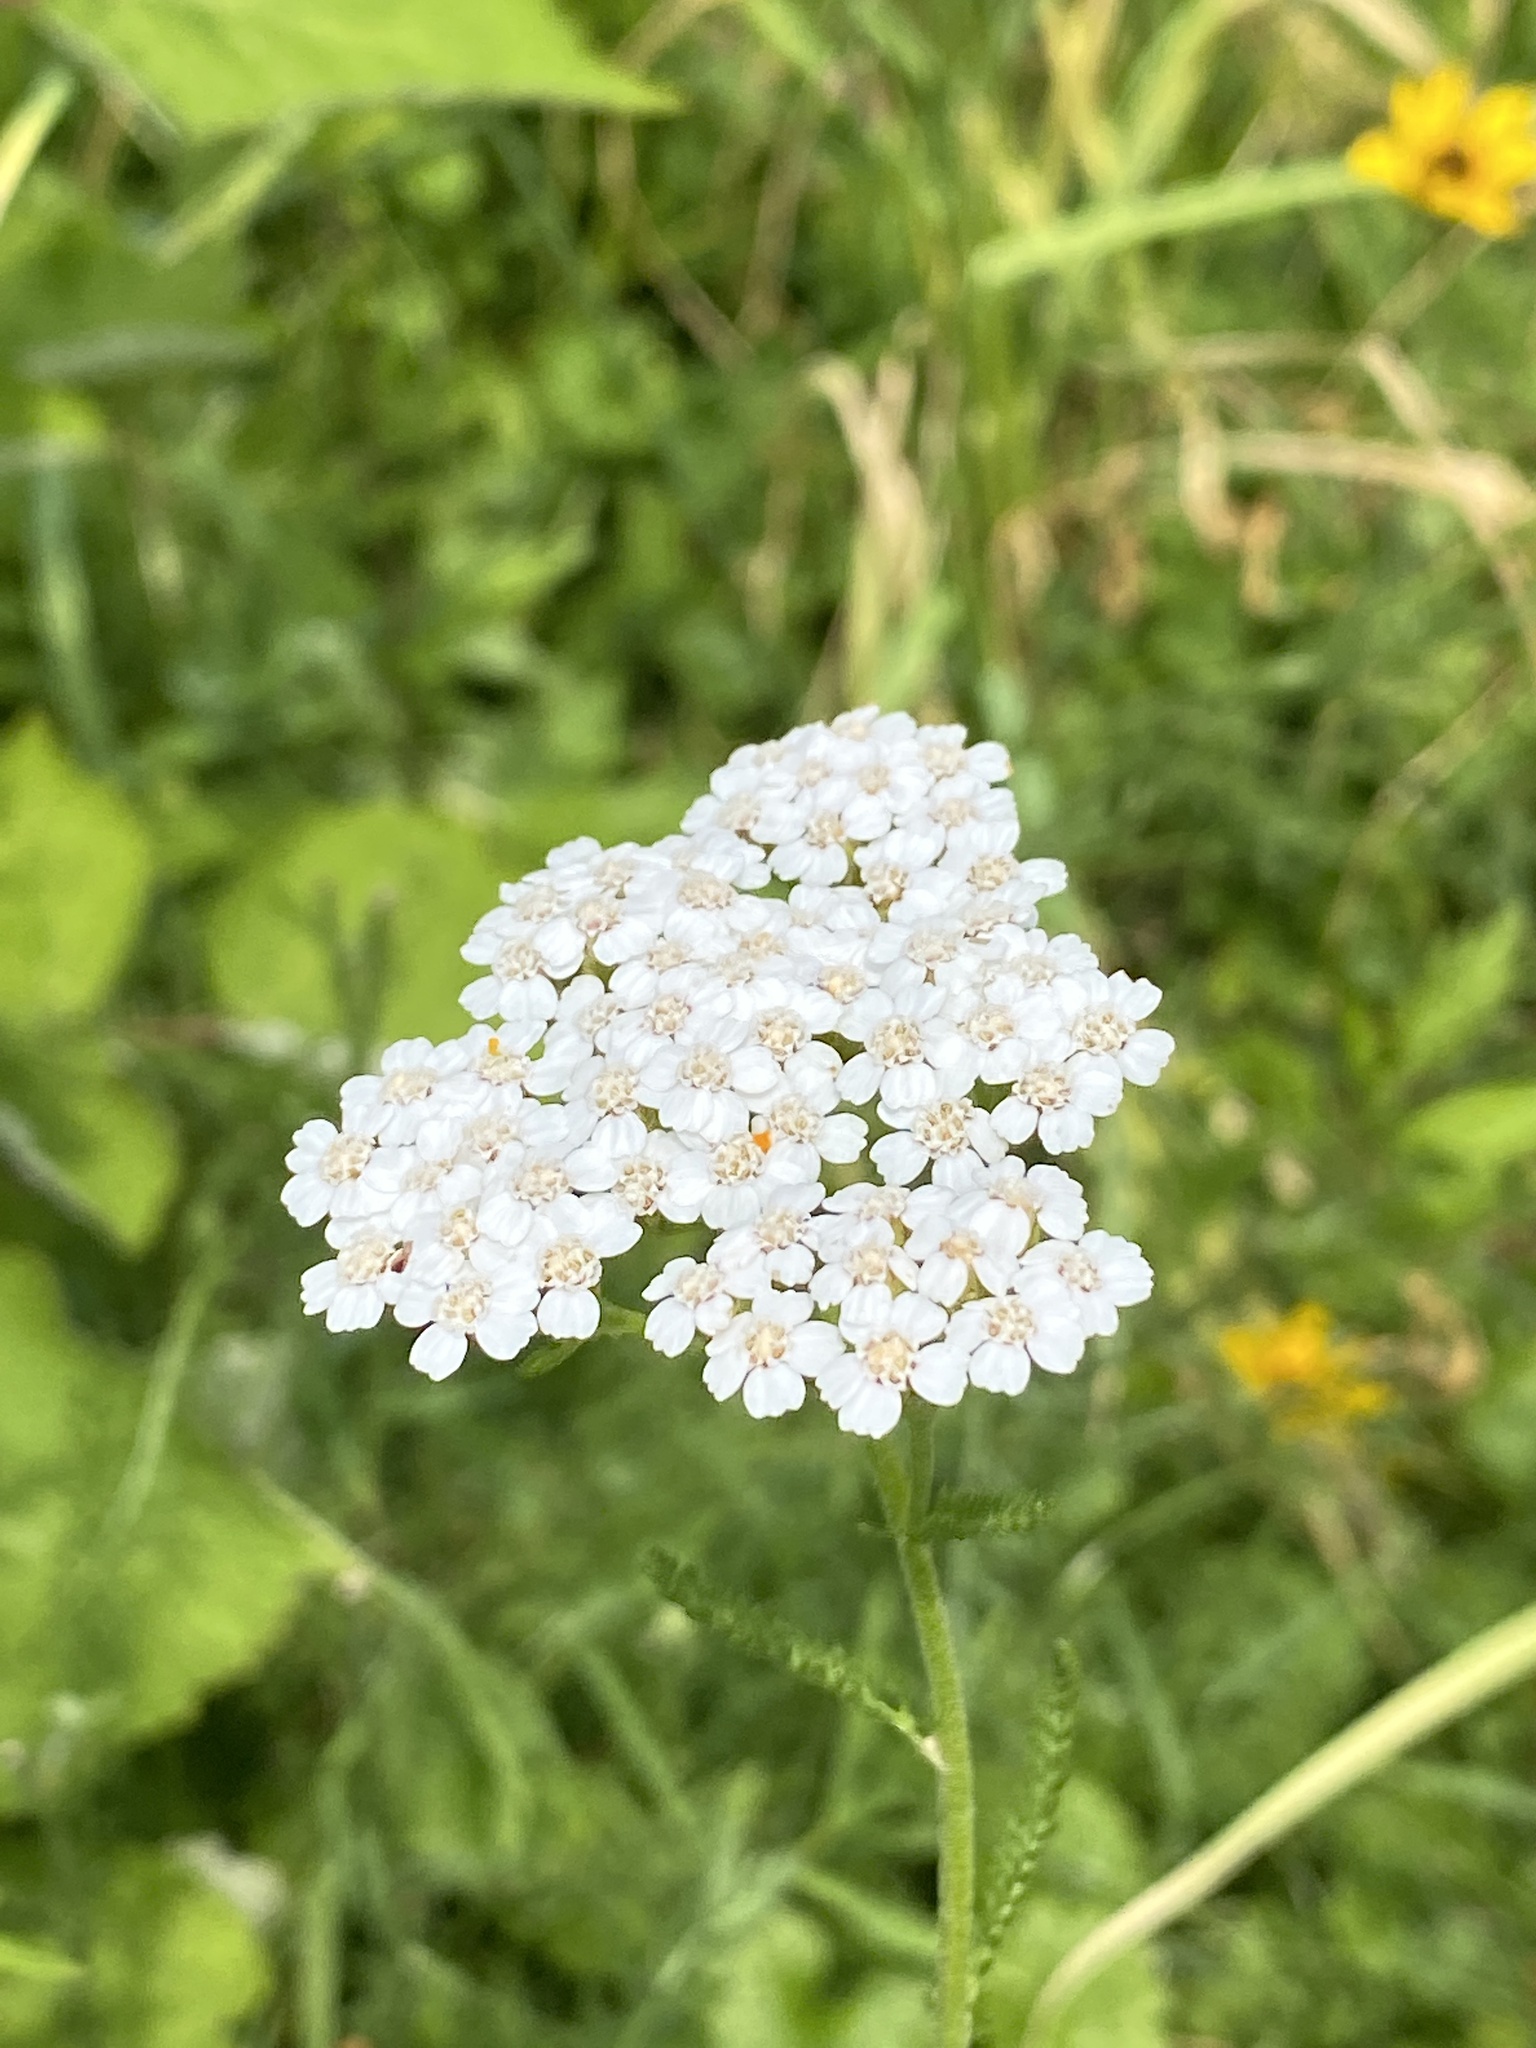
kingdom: Plantae
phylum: Tracheophyta
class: Magnoliopsida
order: Asterales
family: Asteraceae
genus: Achillea
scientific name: Achillea millefolium
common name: Yarrow
